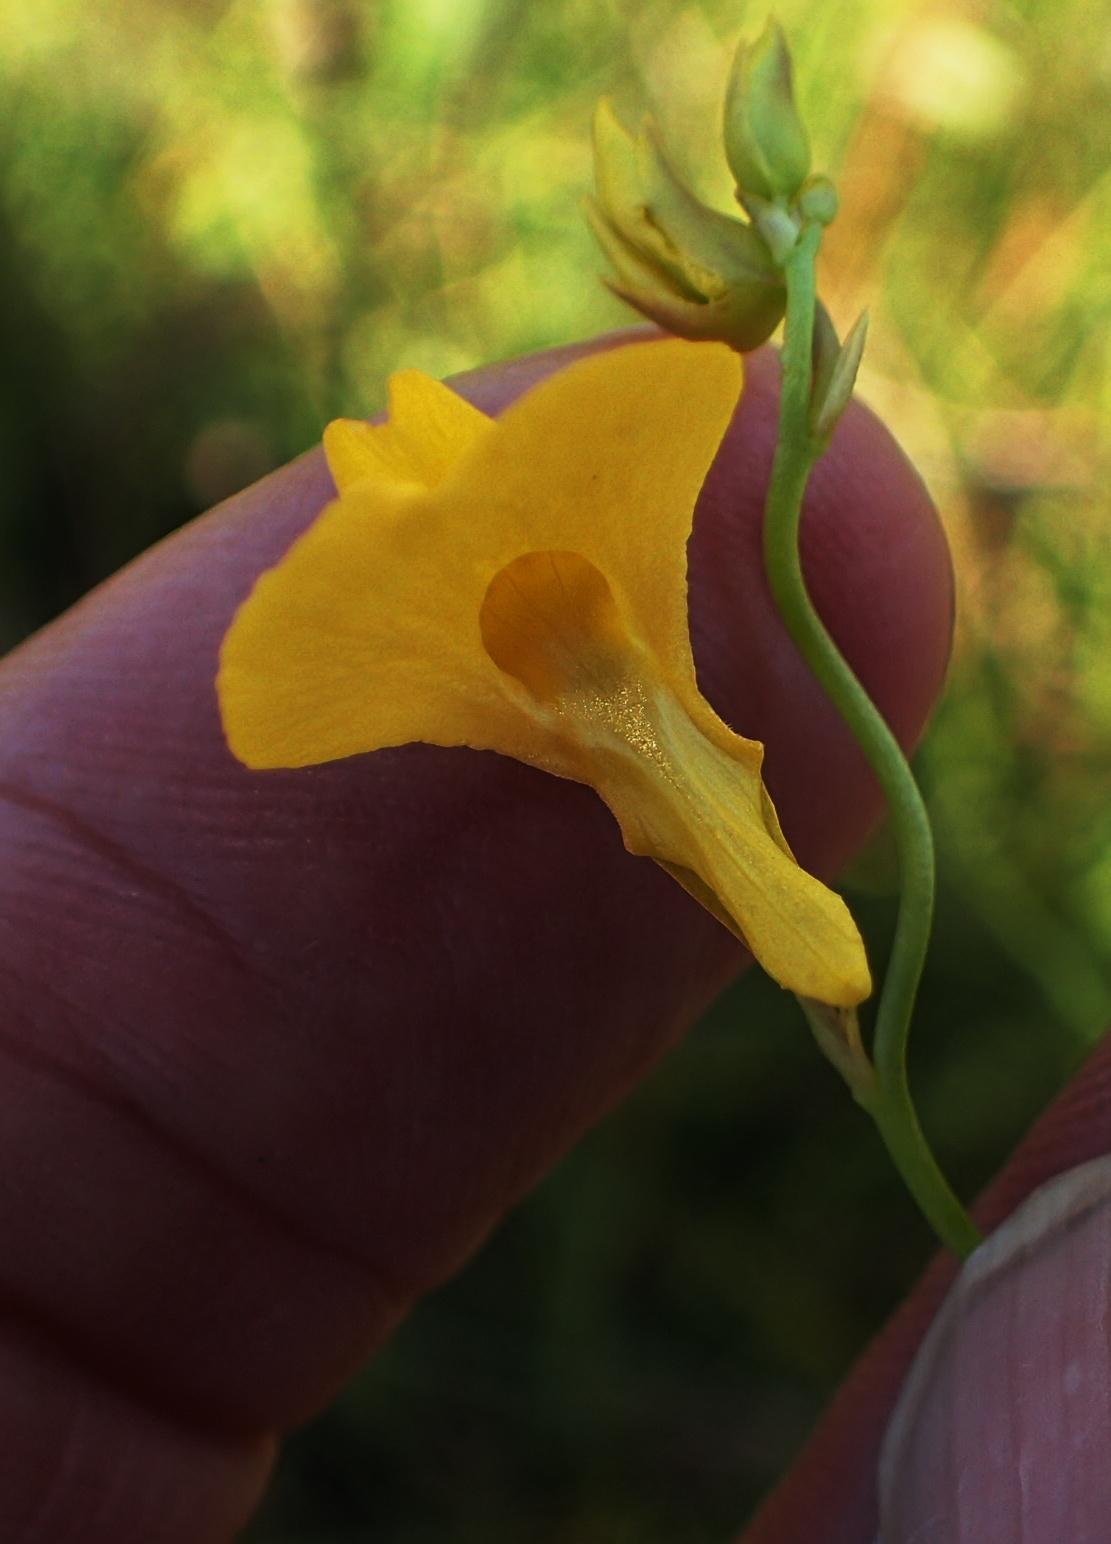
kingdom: Plantae
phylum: Tracheophyta
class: Magnoliopsida
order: Lamiales
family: Lentibulariaceae
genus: Utricularia
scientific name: Utricularia prehensilis
